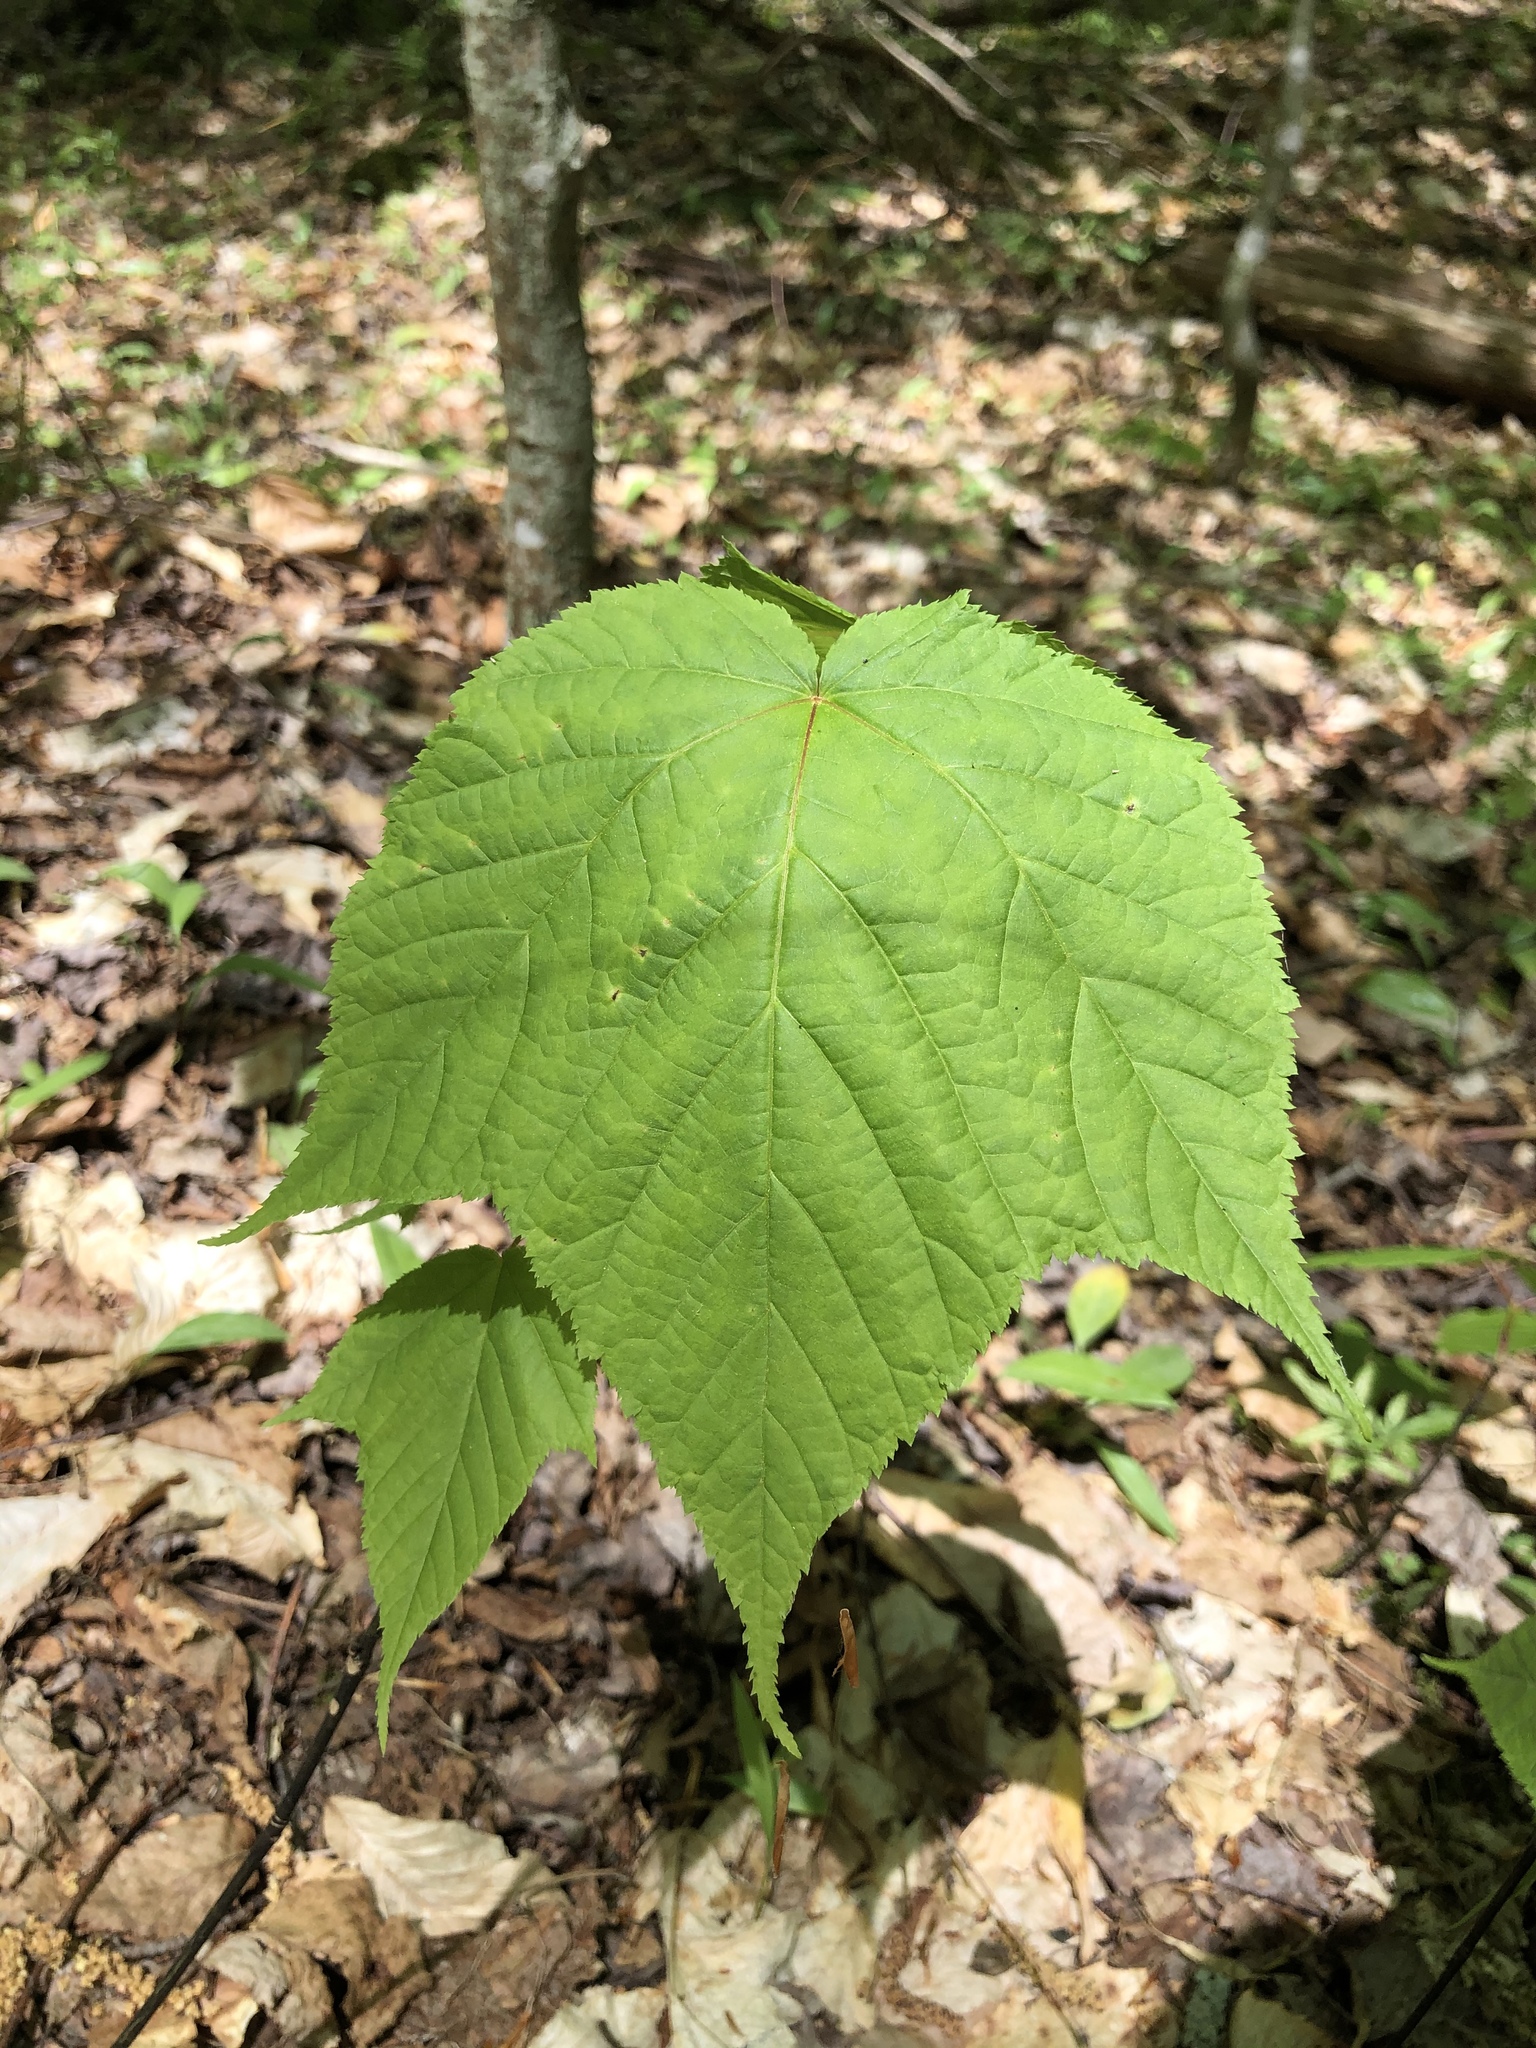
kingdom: Plantae
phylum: Tracheophyta
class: Magnoliopsida
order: Sapindales
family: Sapindaceae
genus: Acer
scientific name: Acer pensylvanicum
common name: Moosewood
